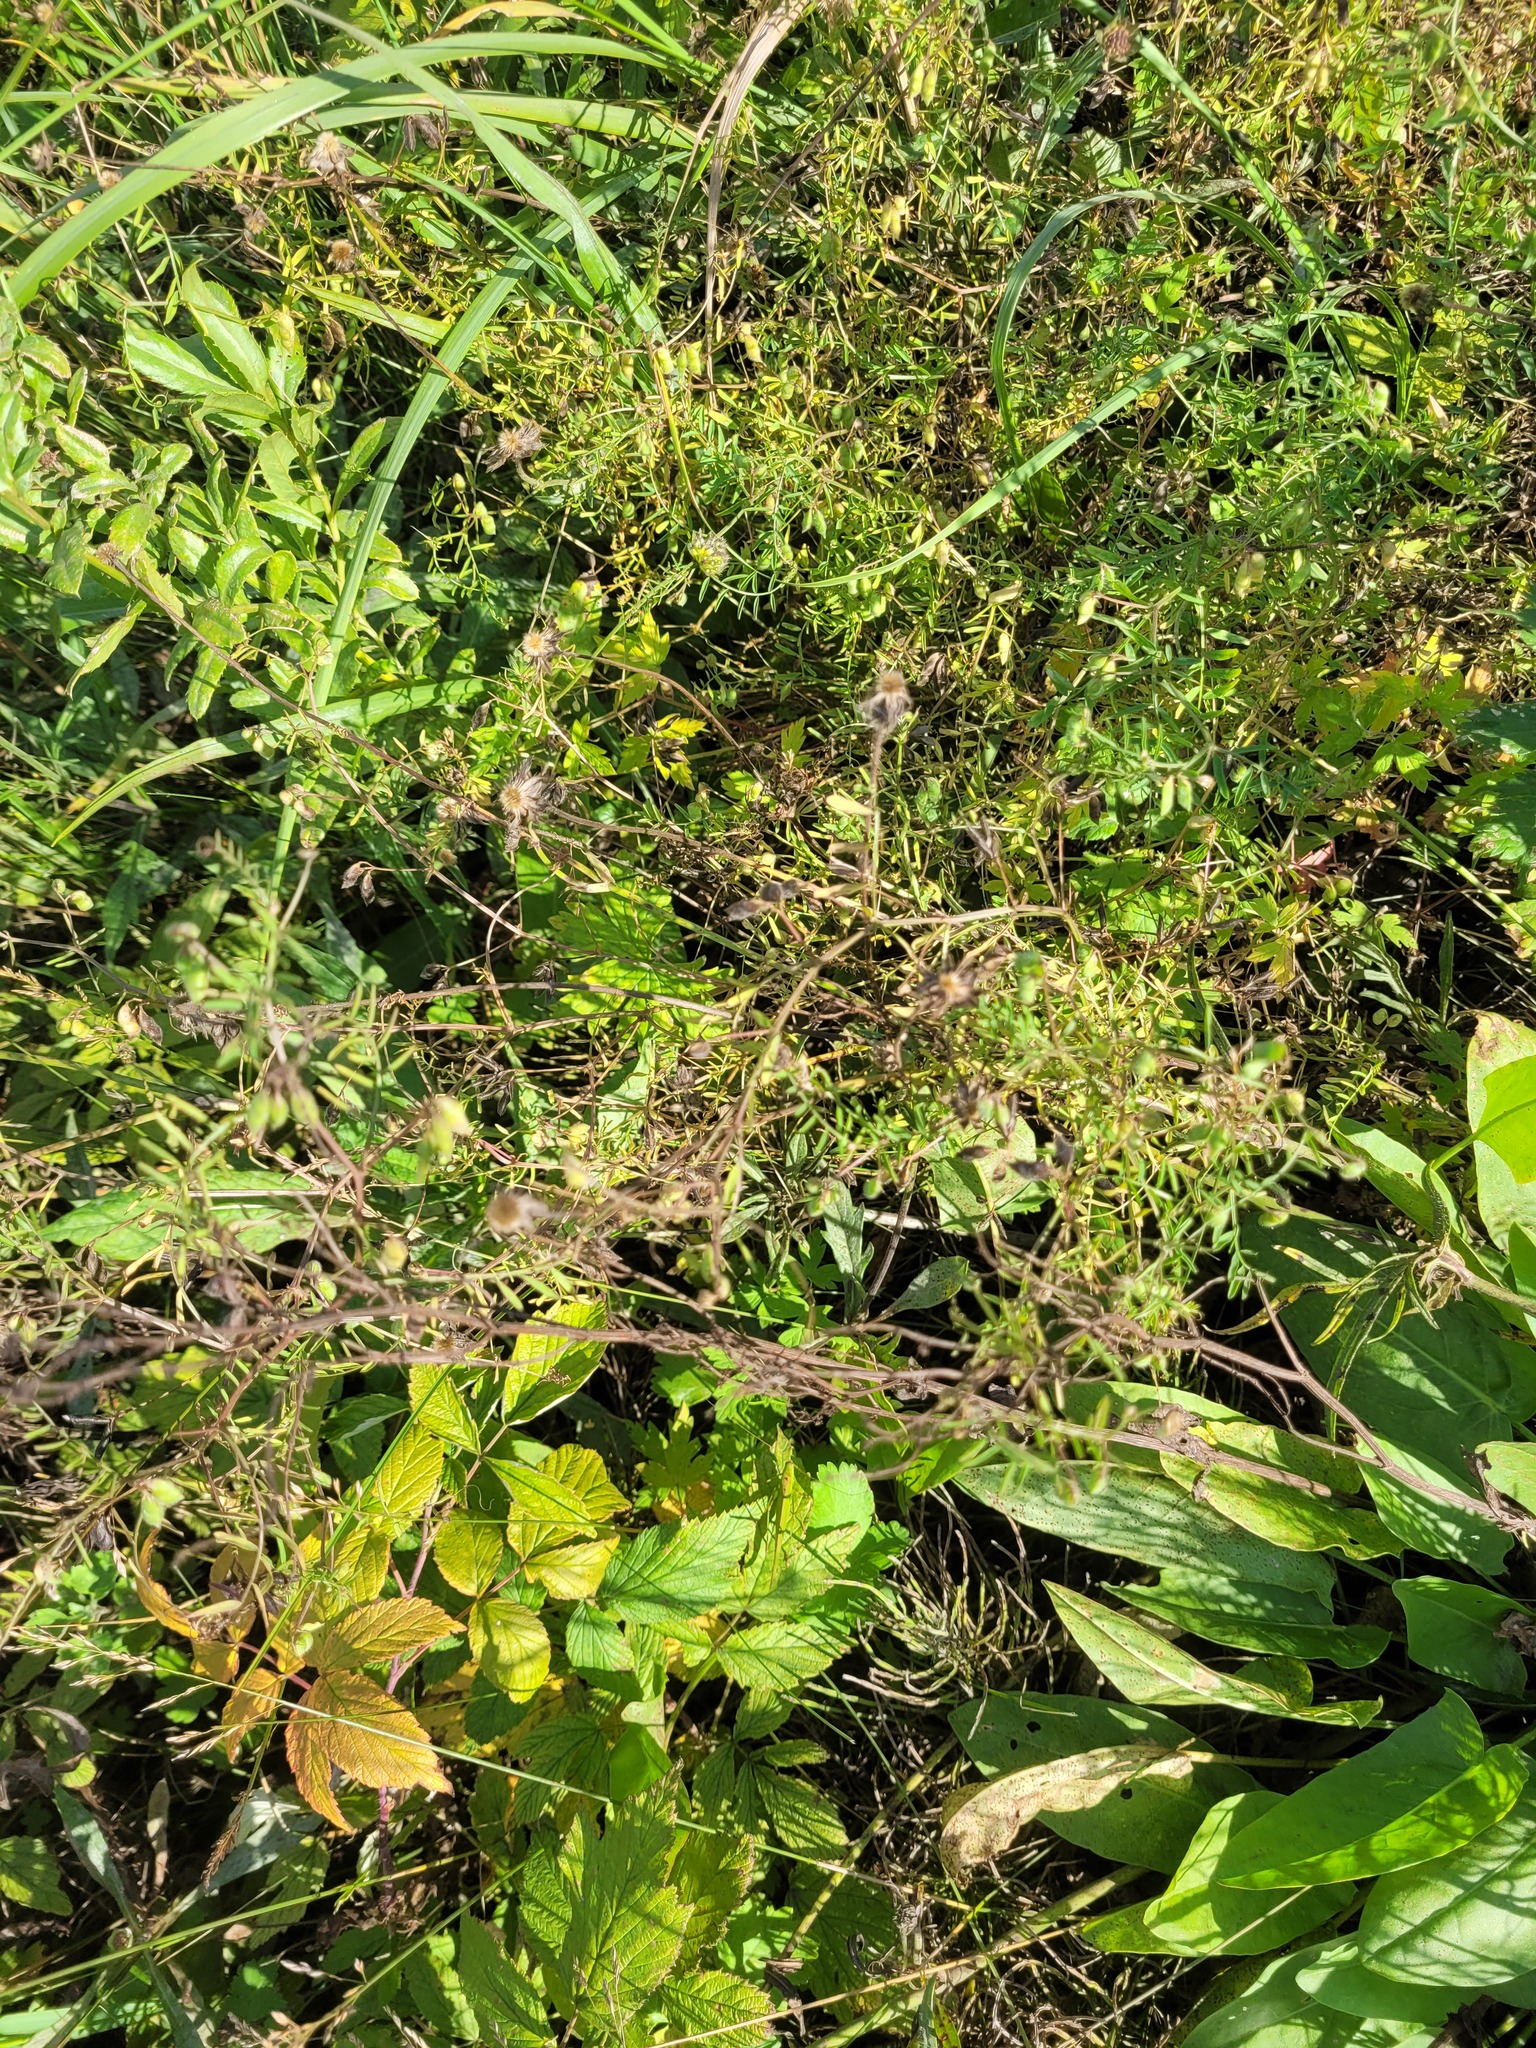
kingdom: Plantae
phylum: Tracheophyta
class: Magnoliopsida
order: Fabales
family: Fabaceae
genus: Vicia
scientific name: Vicia hirsuta
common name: Tiny vetch
